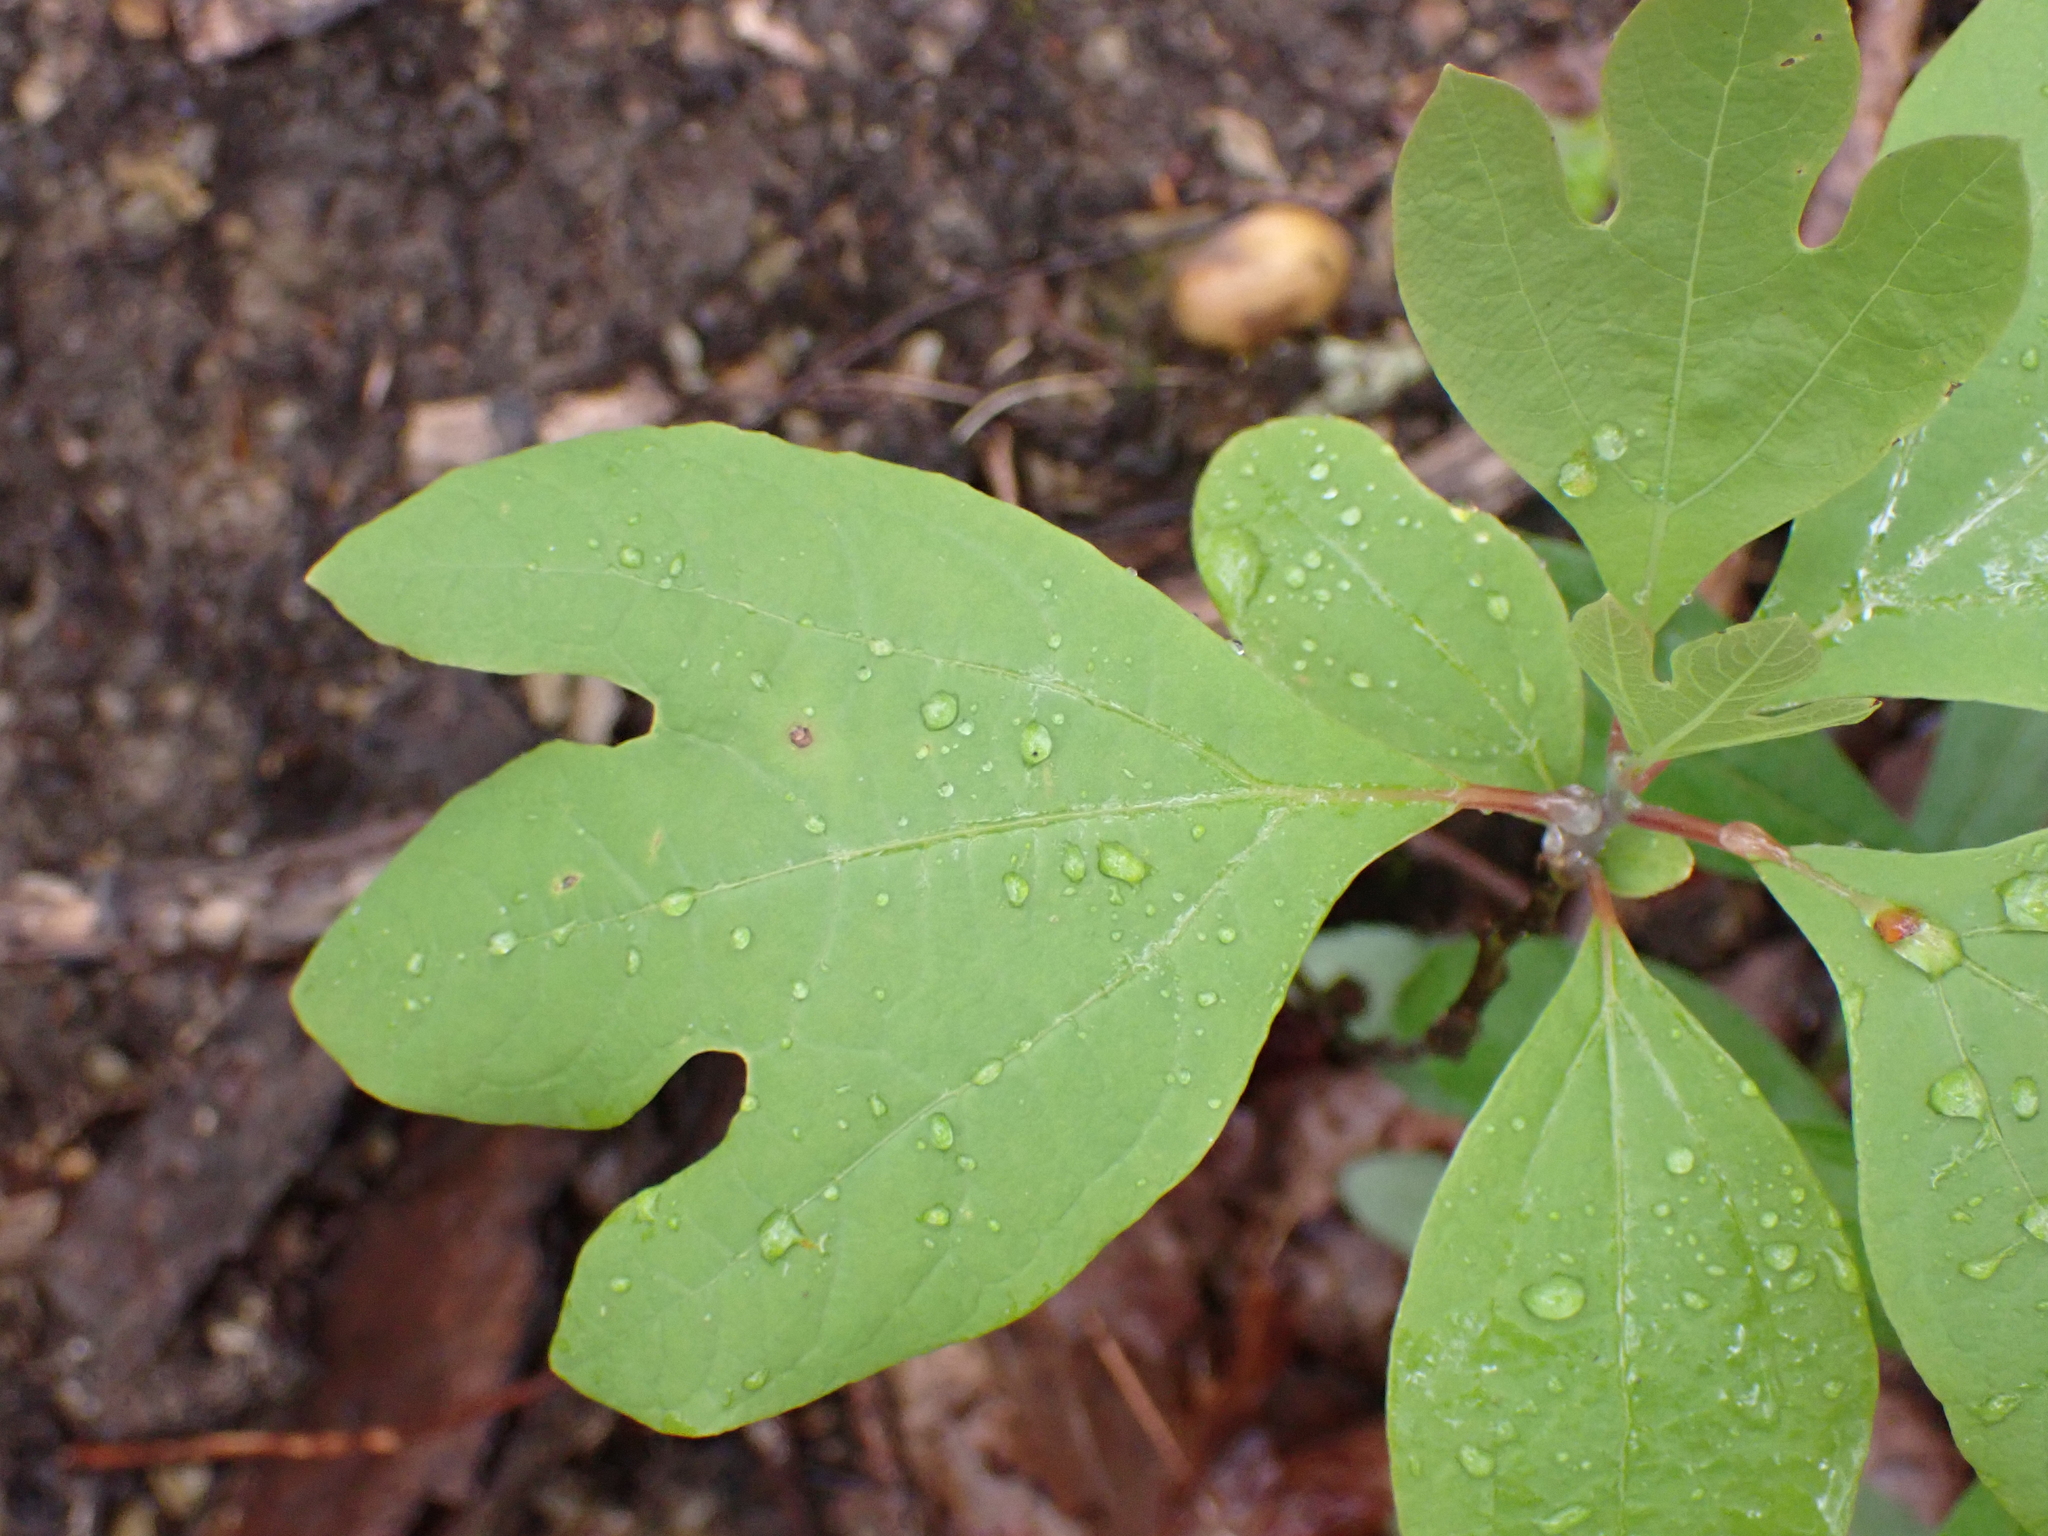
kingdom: Plantae
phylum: Tracheophyta
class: Magnoliopsida
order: Laurales
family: Lauraceae
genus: Sassafras
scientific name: Sassafras albidum
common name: Sassafras
